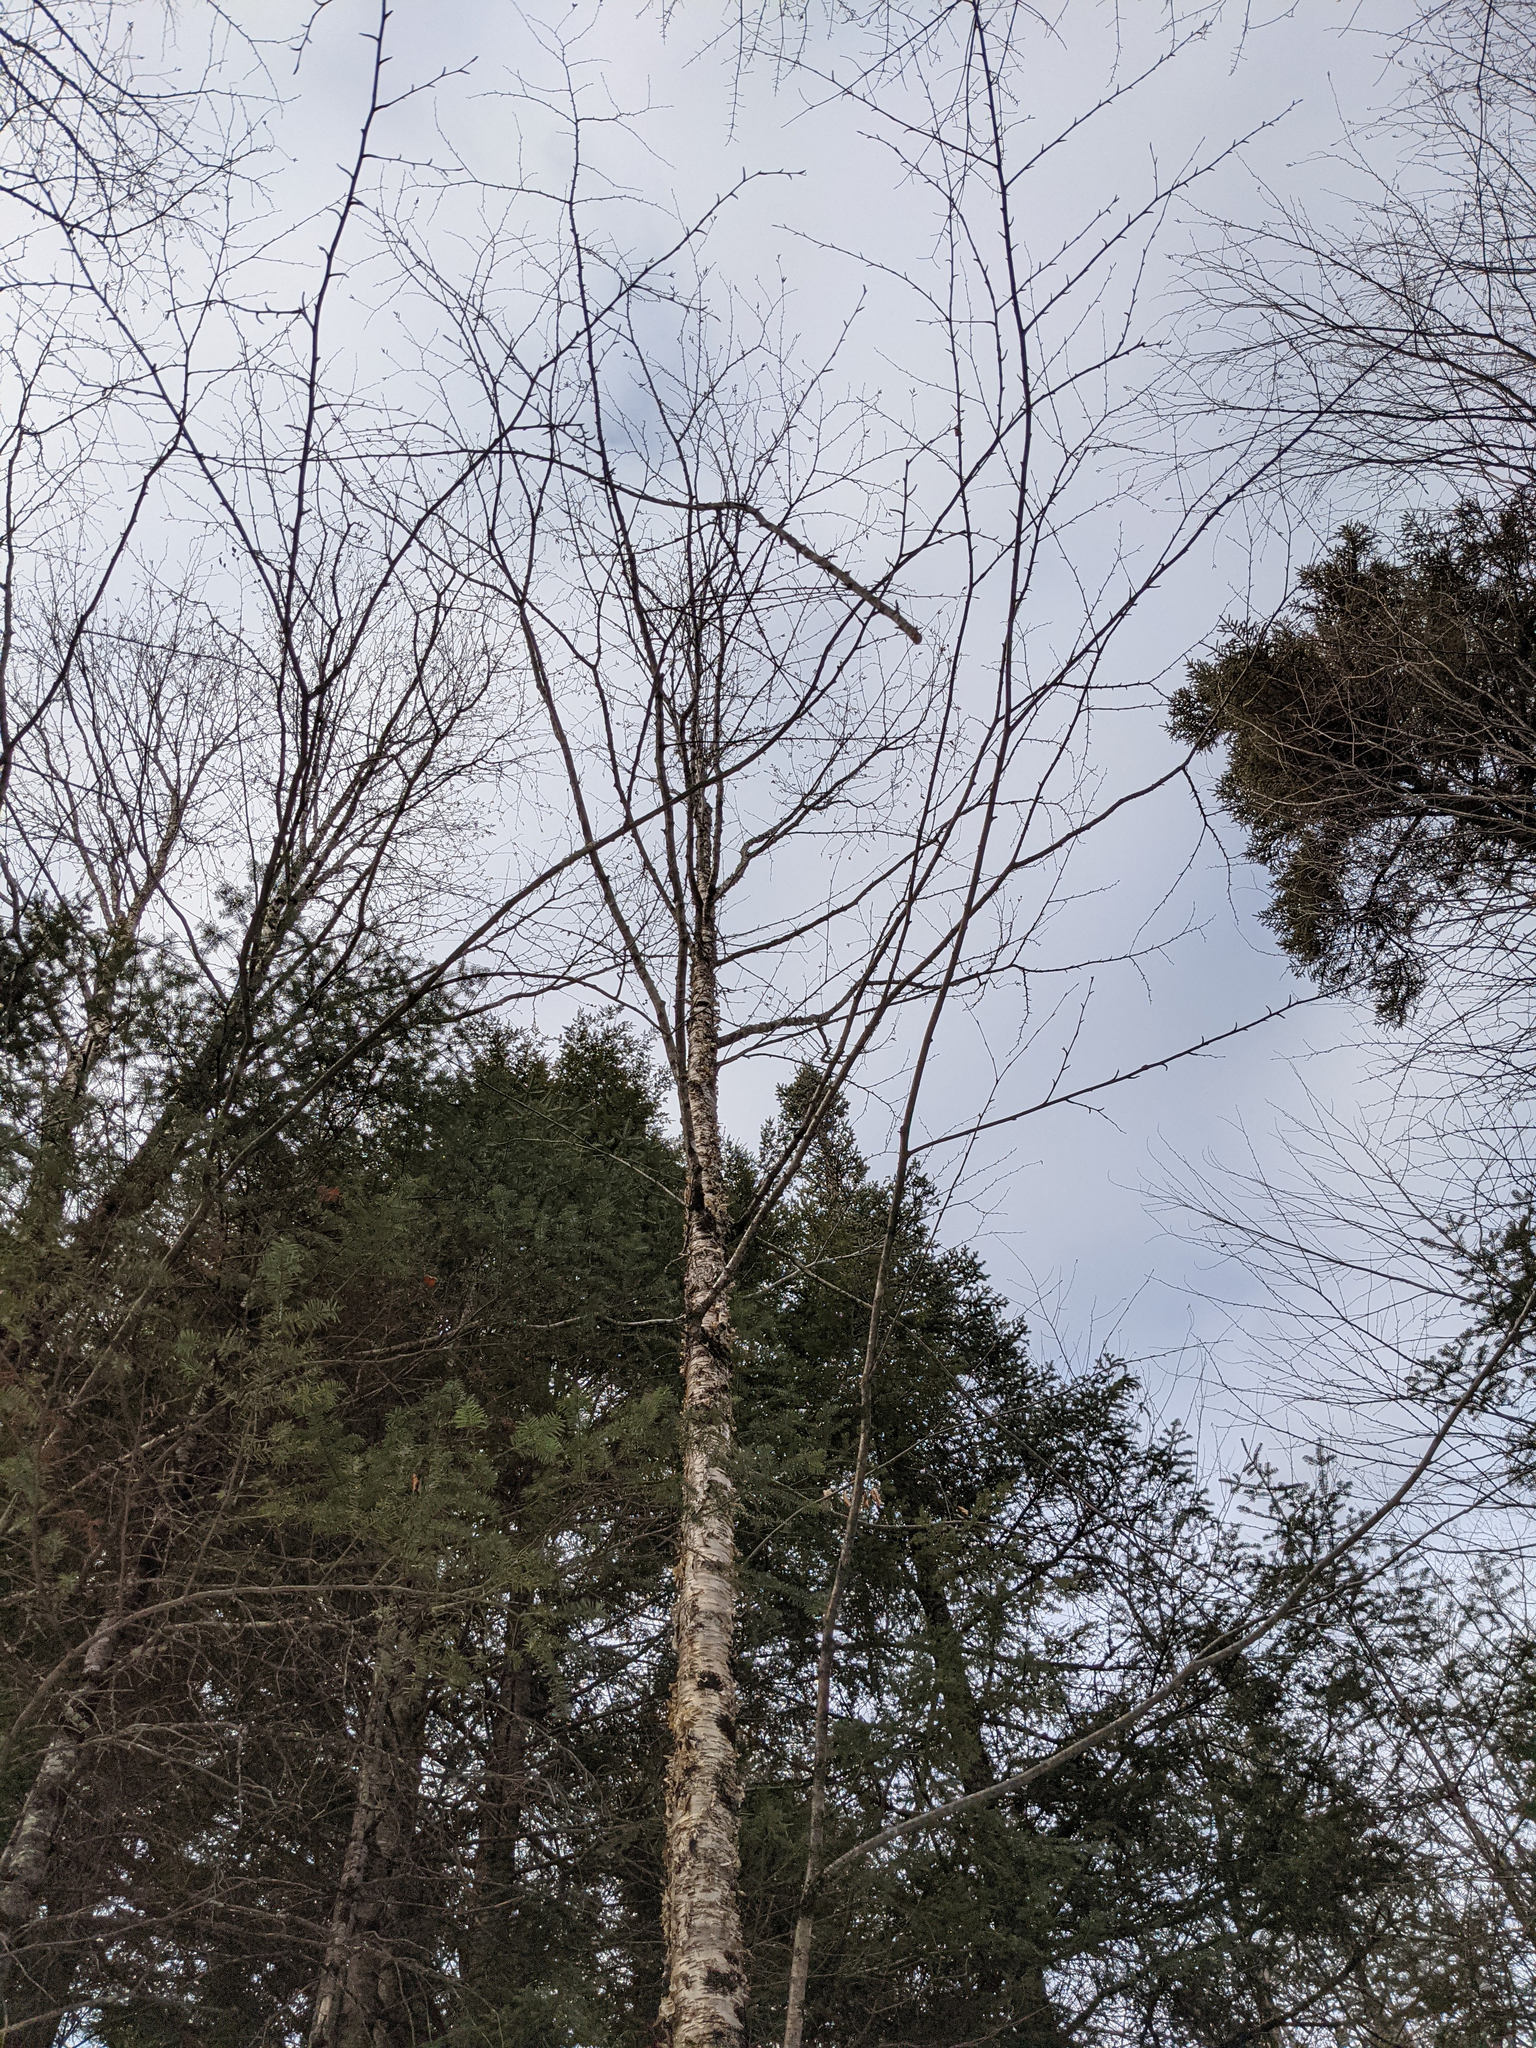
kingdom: Plantae
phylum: Tracheophyta
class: Magnoliopsida
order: Fagales
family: Betulaceae
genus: Betula
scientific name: Betula alleghaniensis
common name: Yellow birch
